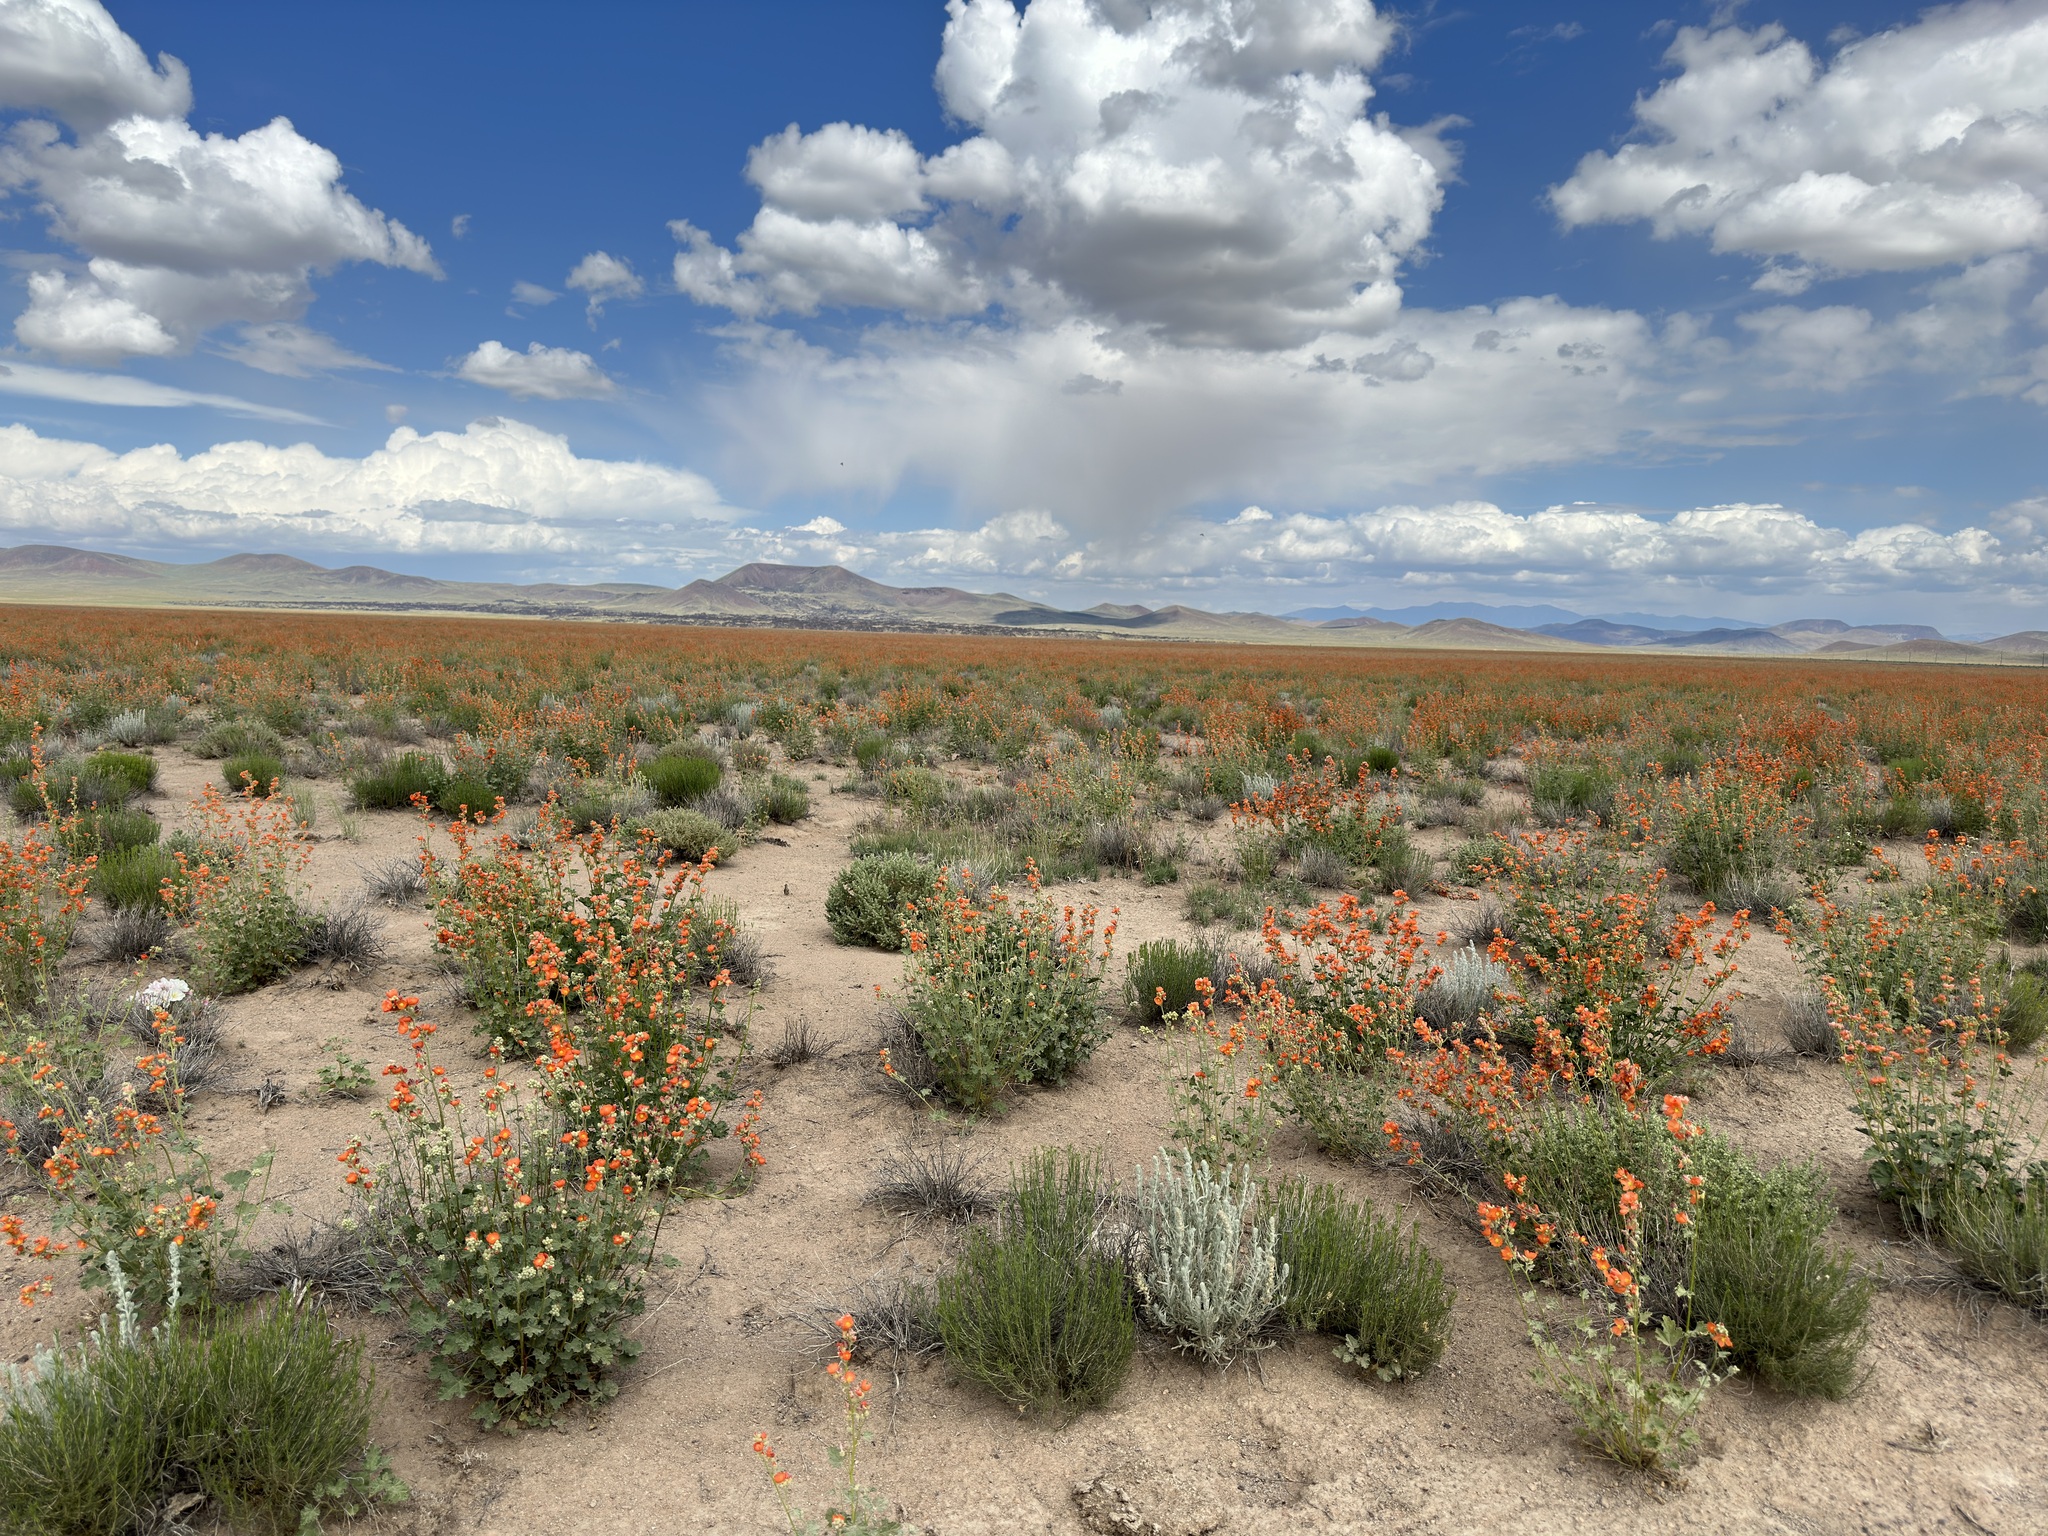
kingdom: Plantae
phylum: Tracheophyta
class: Magnoliopsida
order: Malvales
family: Malvaceae
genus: Sphaeralcea
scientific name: Sphaeralcea ambigua
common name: Apricot globe-mallow
